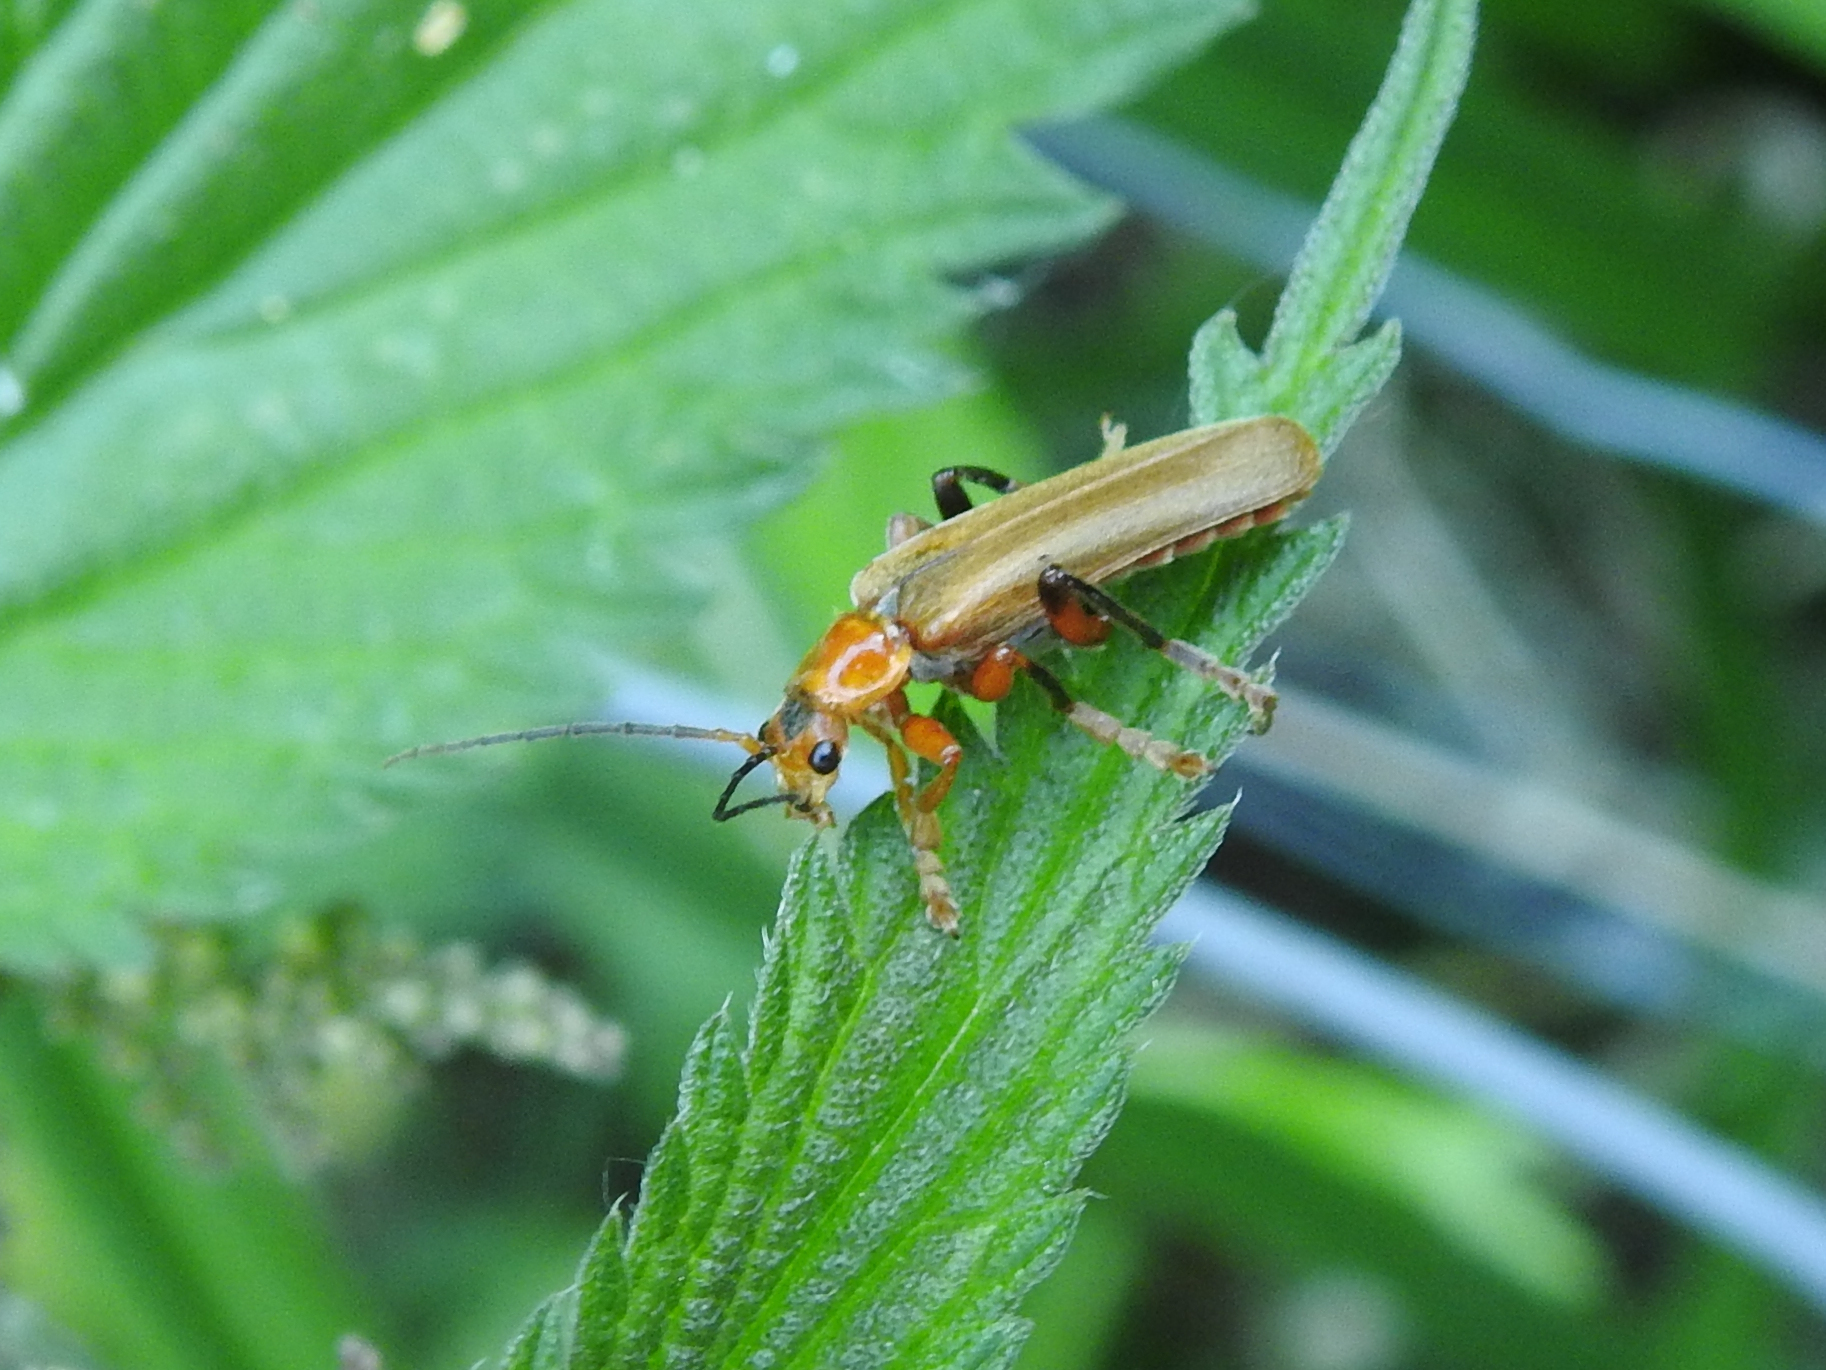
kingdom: Animalia
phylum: Arthropoda
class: Insecta
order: Coleoptera
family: Cantharidae
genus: Cantharis
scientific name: Cantharis livida
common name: Livid soldier beetle
